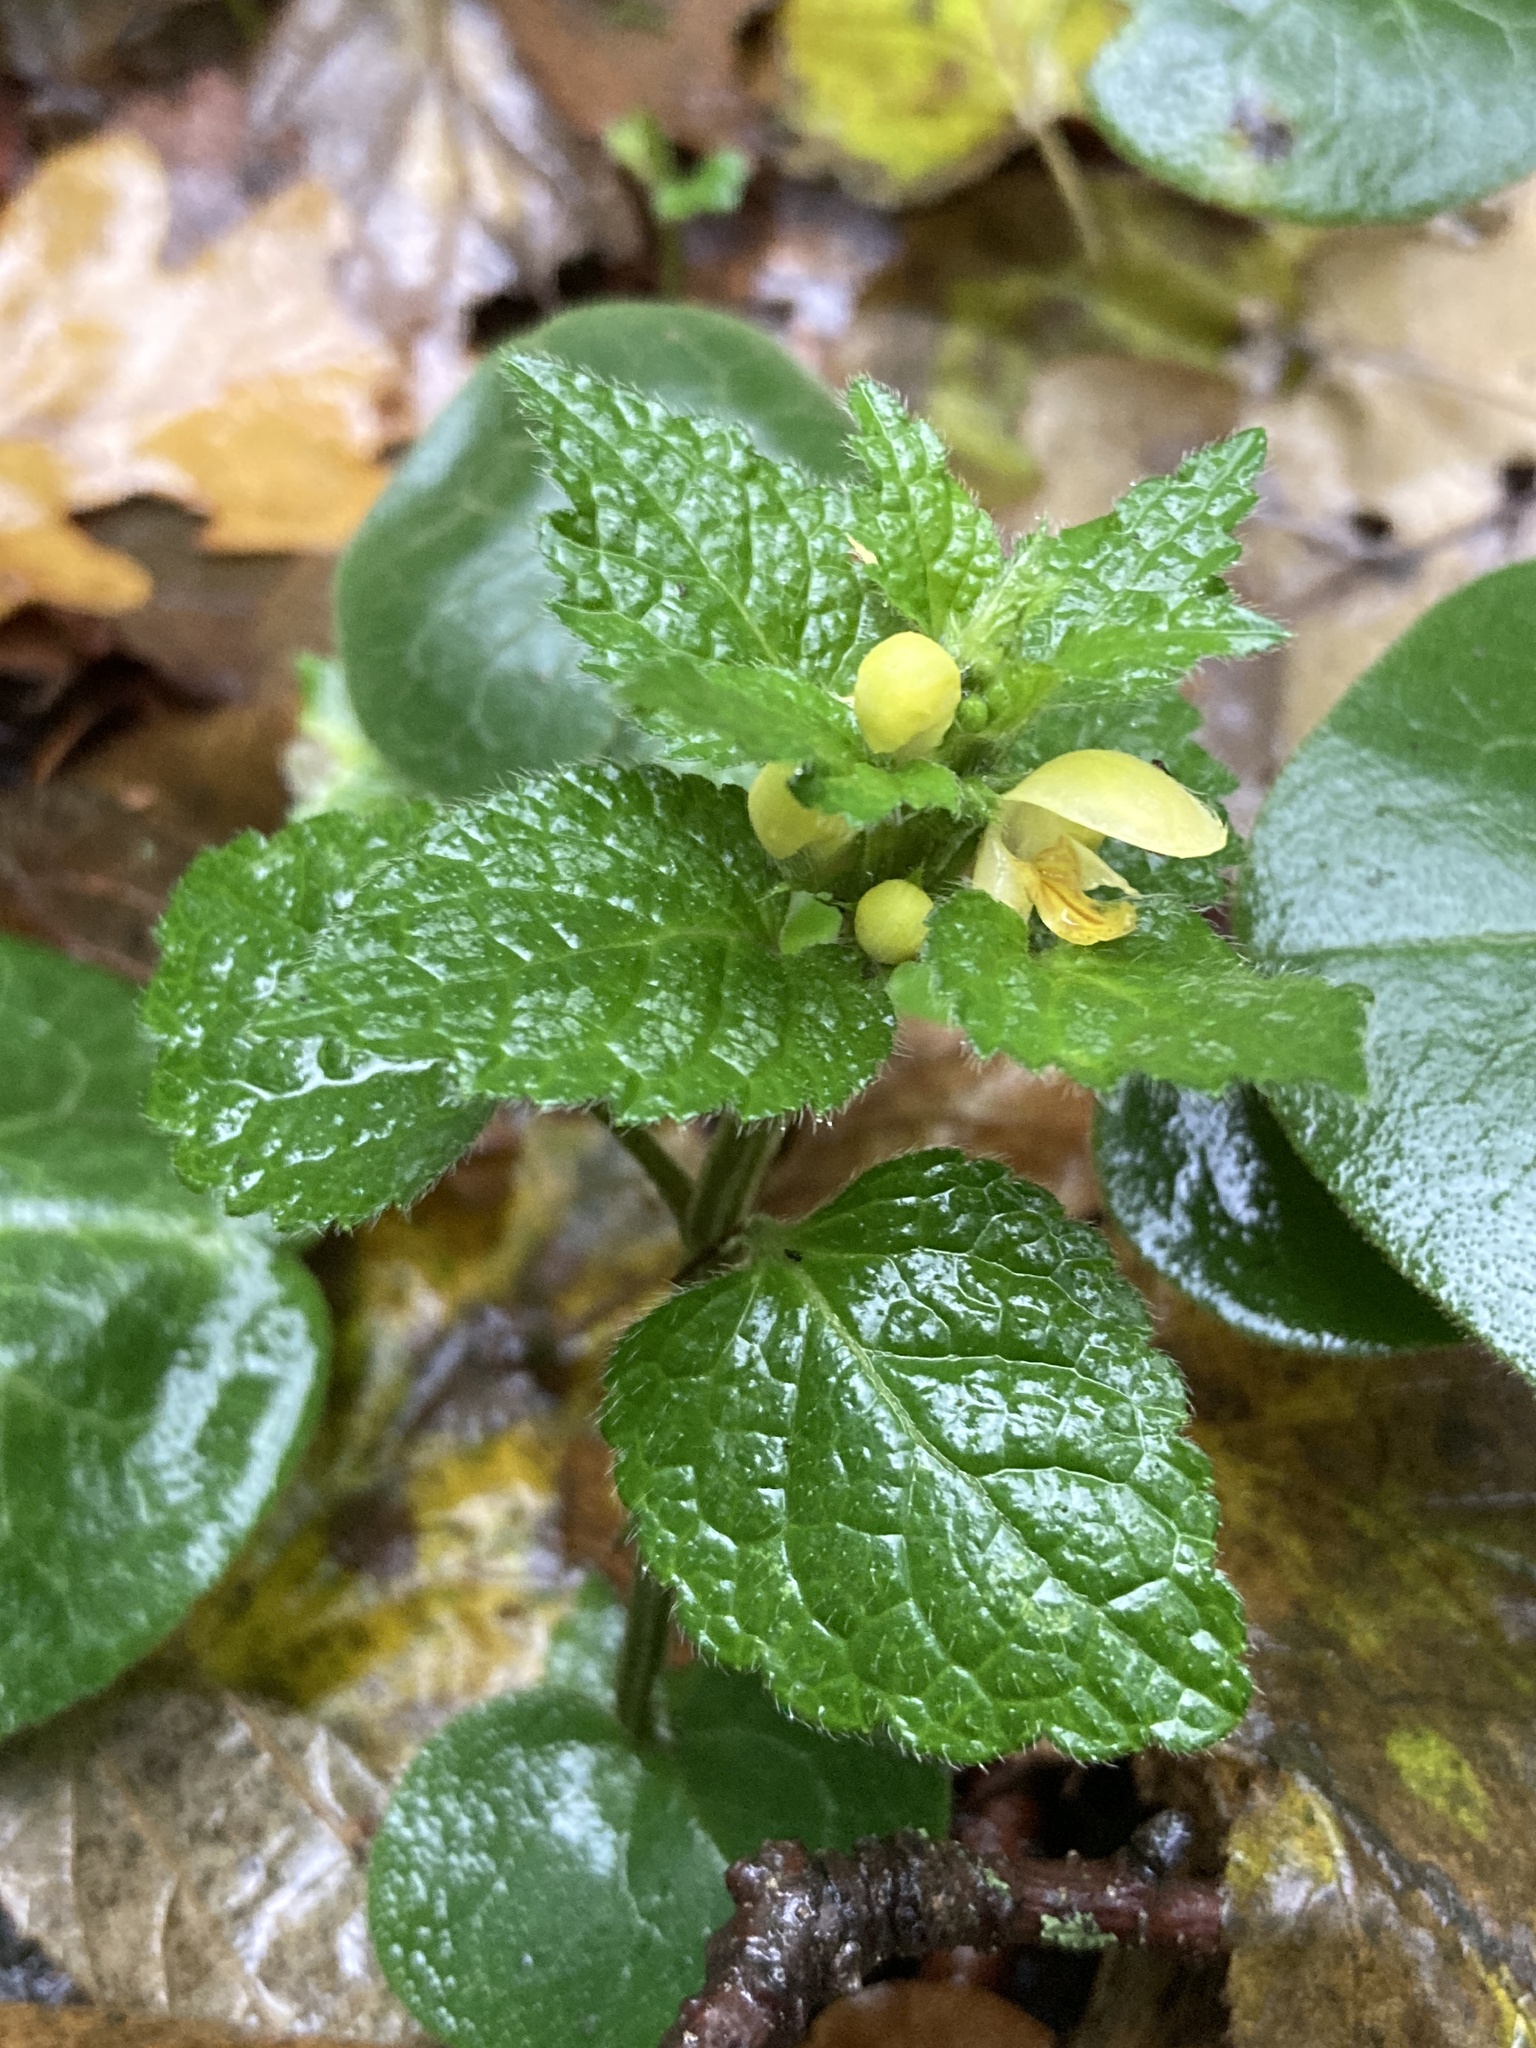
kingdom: Plantae
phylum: Tracheophyta
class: Magnoliopsida
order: Lamiales
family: Lamiaceae
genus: Lamium
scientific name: Lamium galeobdolon
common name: Yellow archangel
